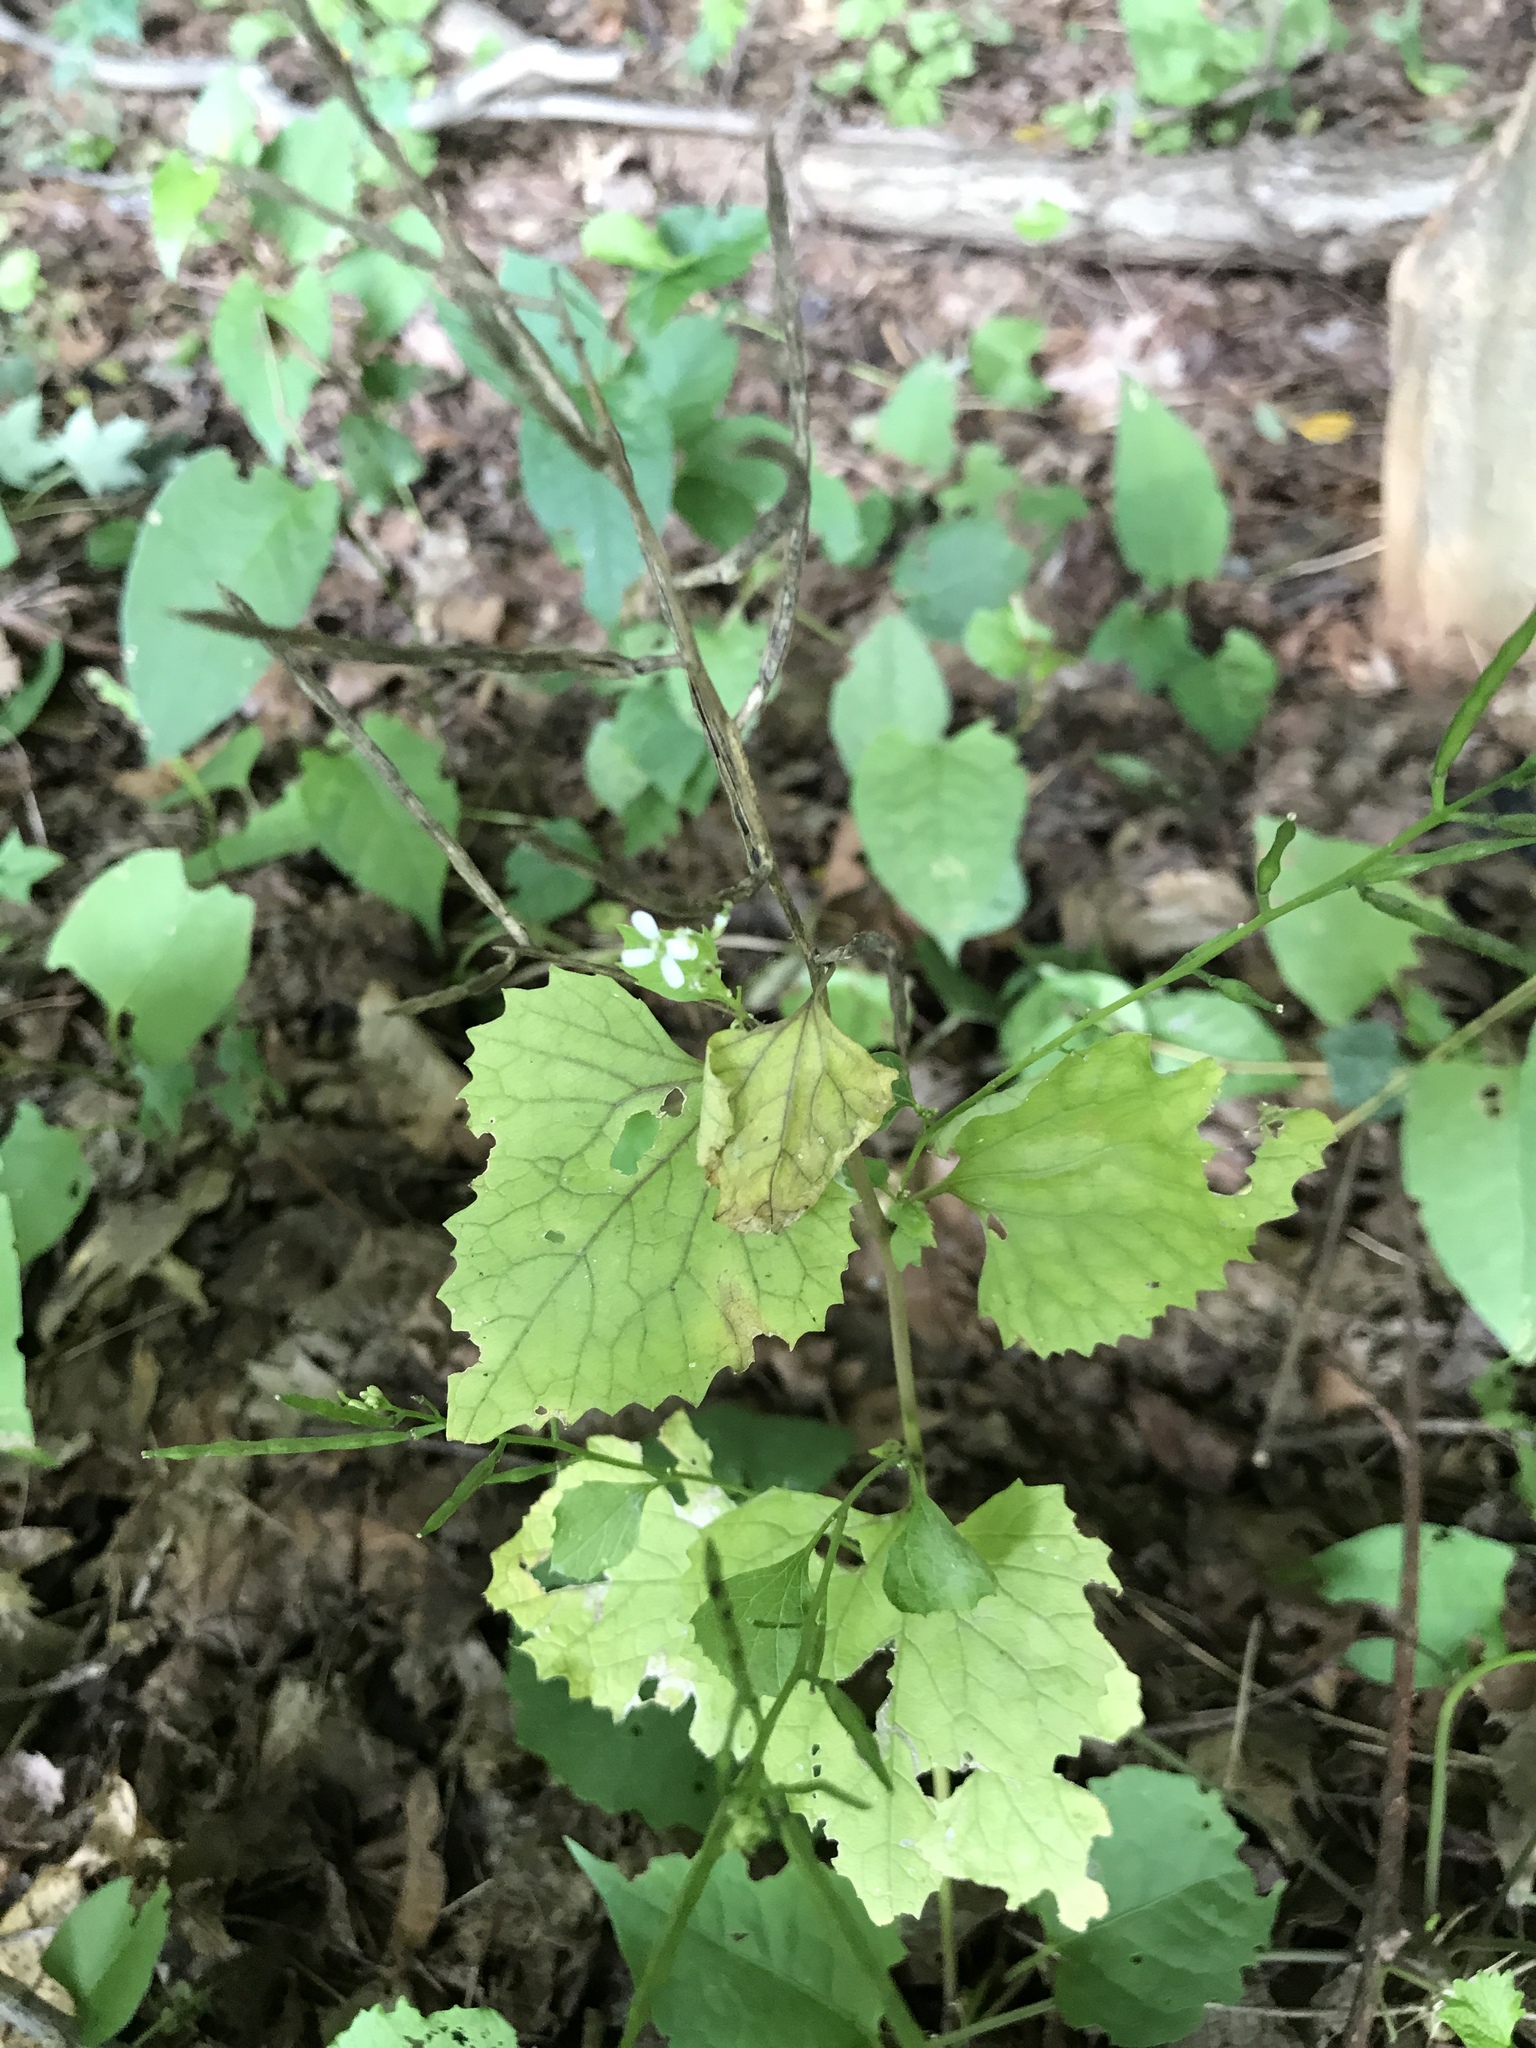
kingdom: Plantae
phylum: Tracheophyta
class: Magnoliopsida
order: Brassicales
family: Brassicaceae
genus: Alliaria
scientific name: Alliaria petiolata
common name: Garlic mustard
